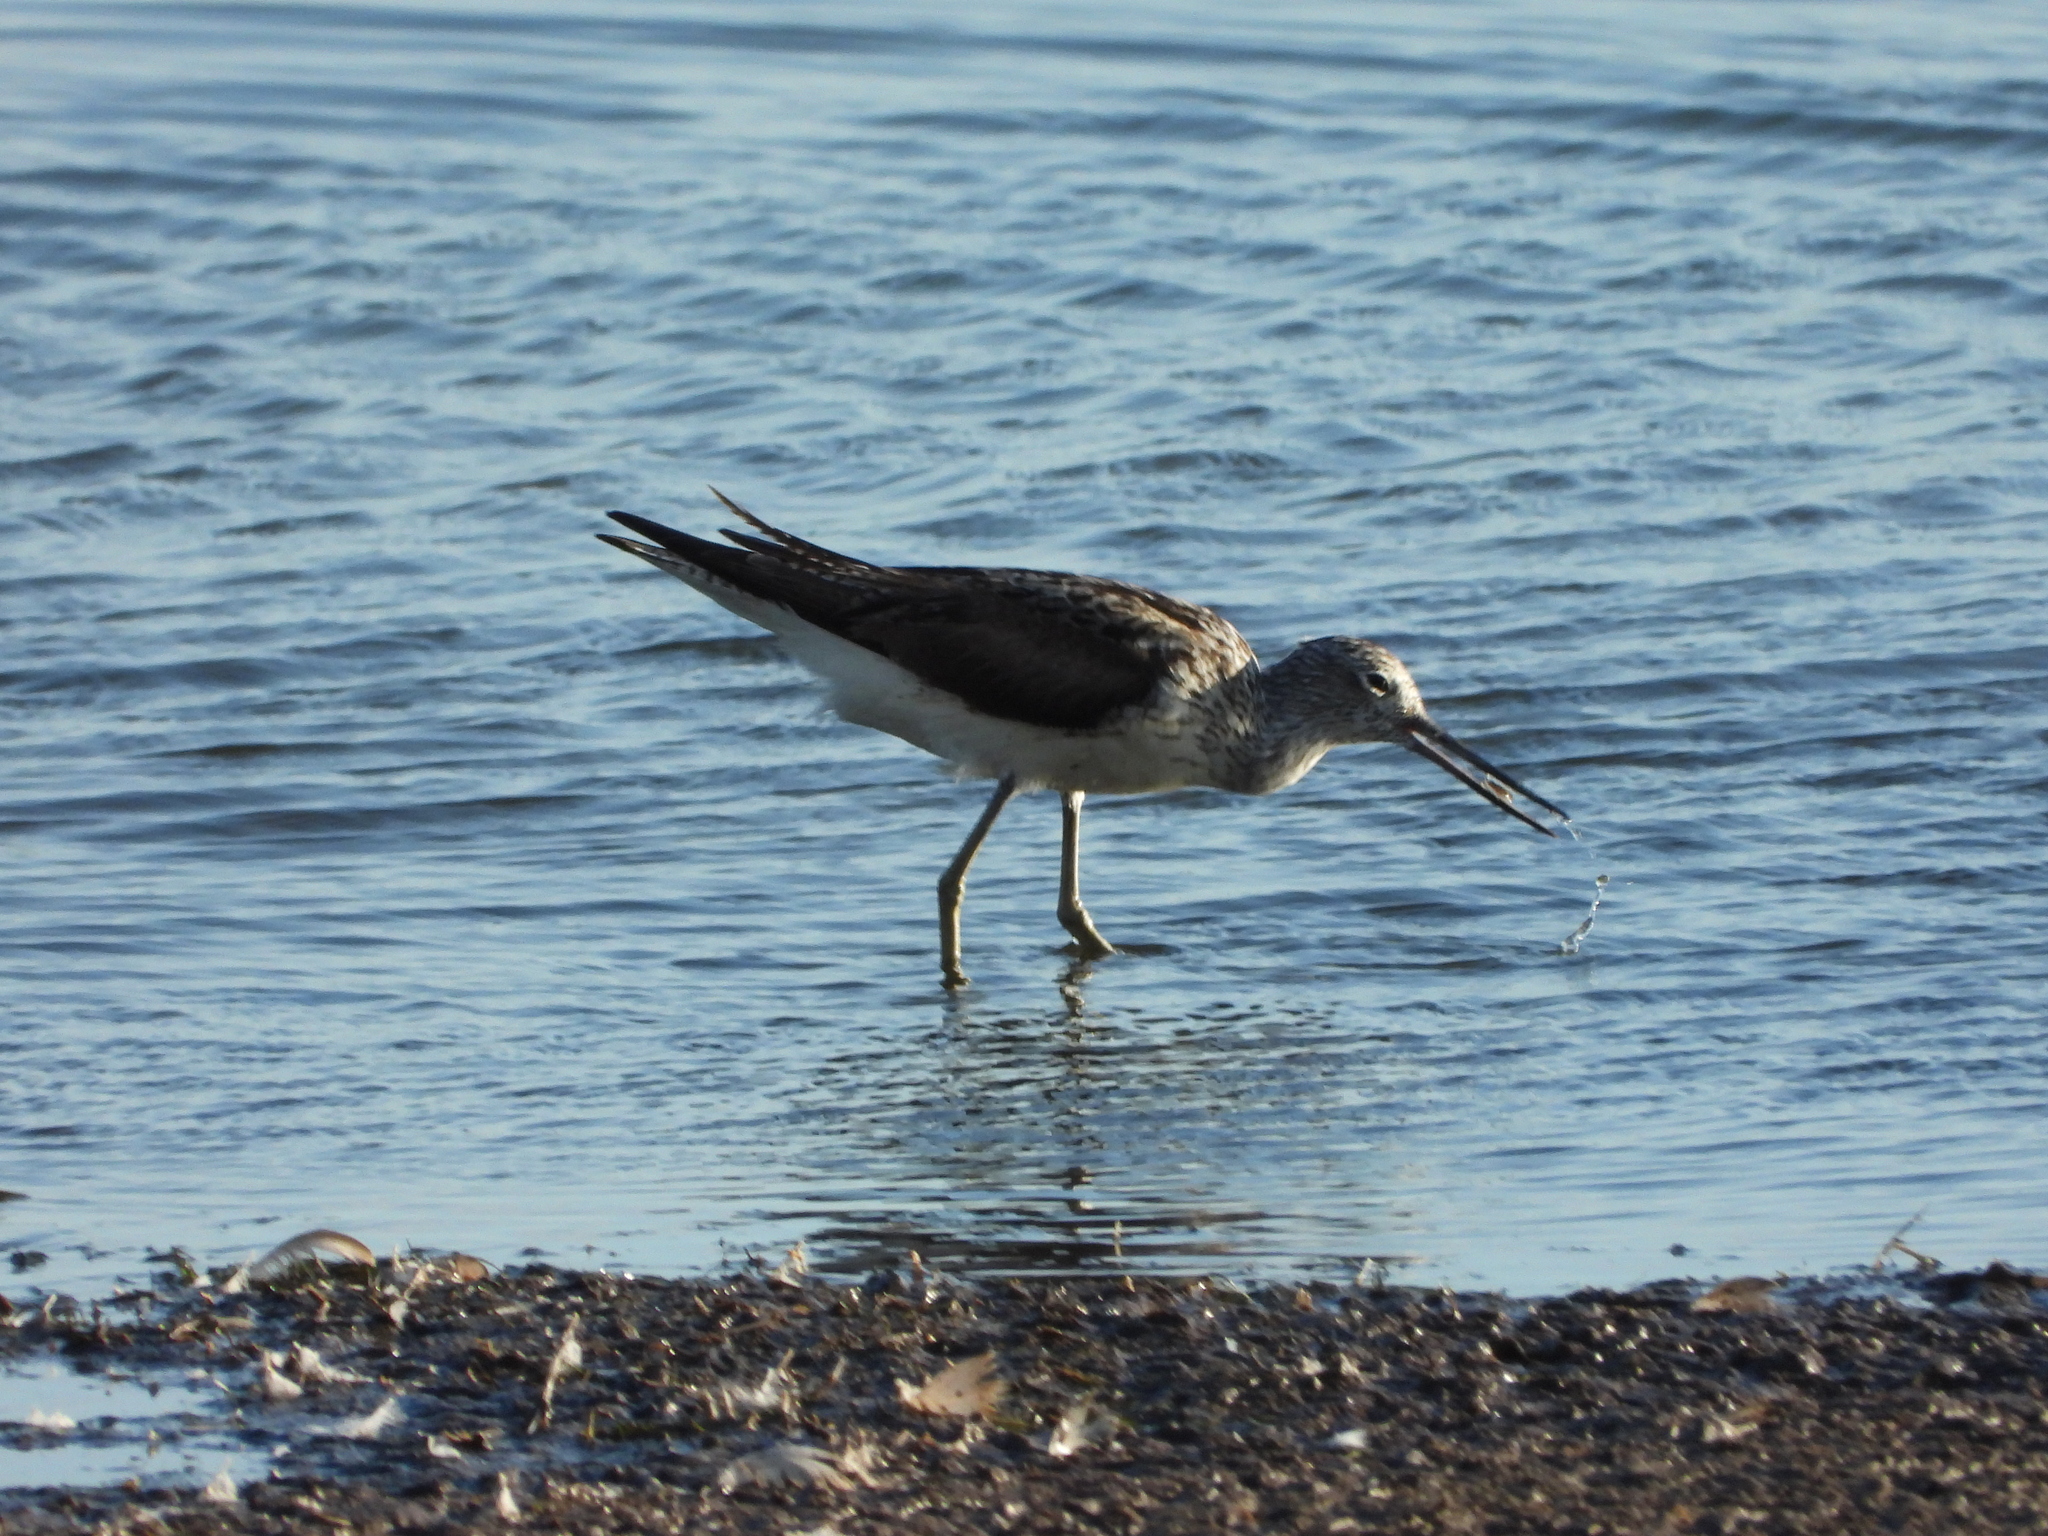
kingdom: Animalia
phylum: Chordata
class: Aves
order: Charadriiformes
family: Scolopacidae
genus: Tringa
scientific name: Tringa nebularia
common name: Common greenshank
